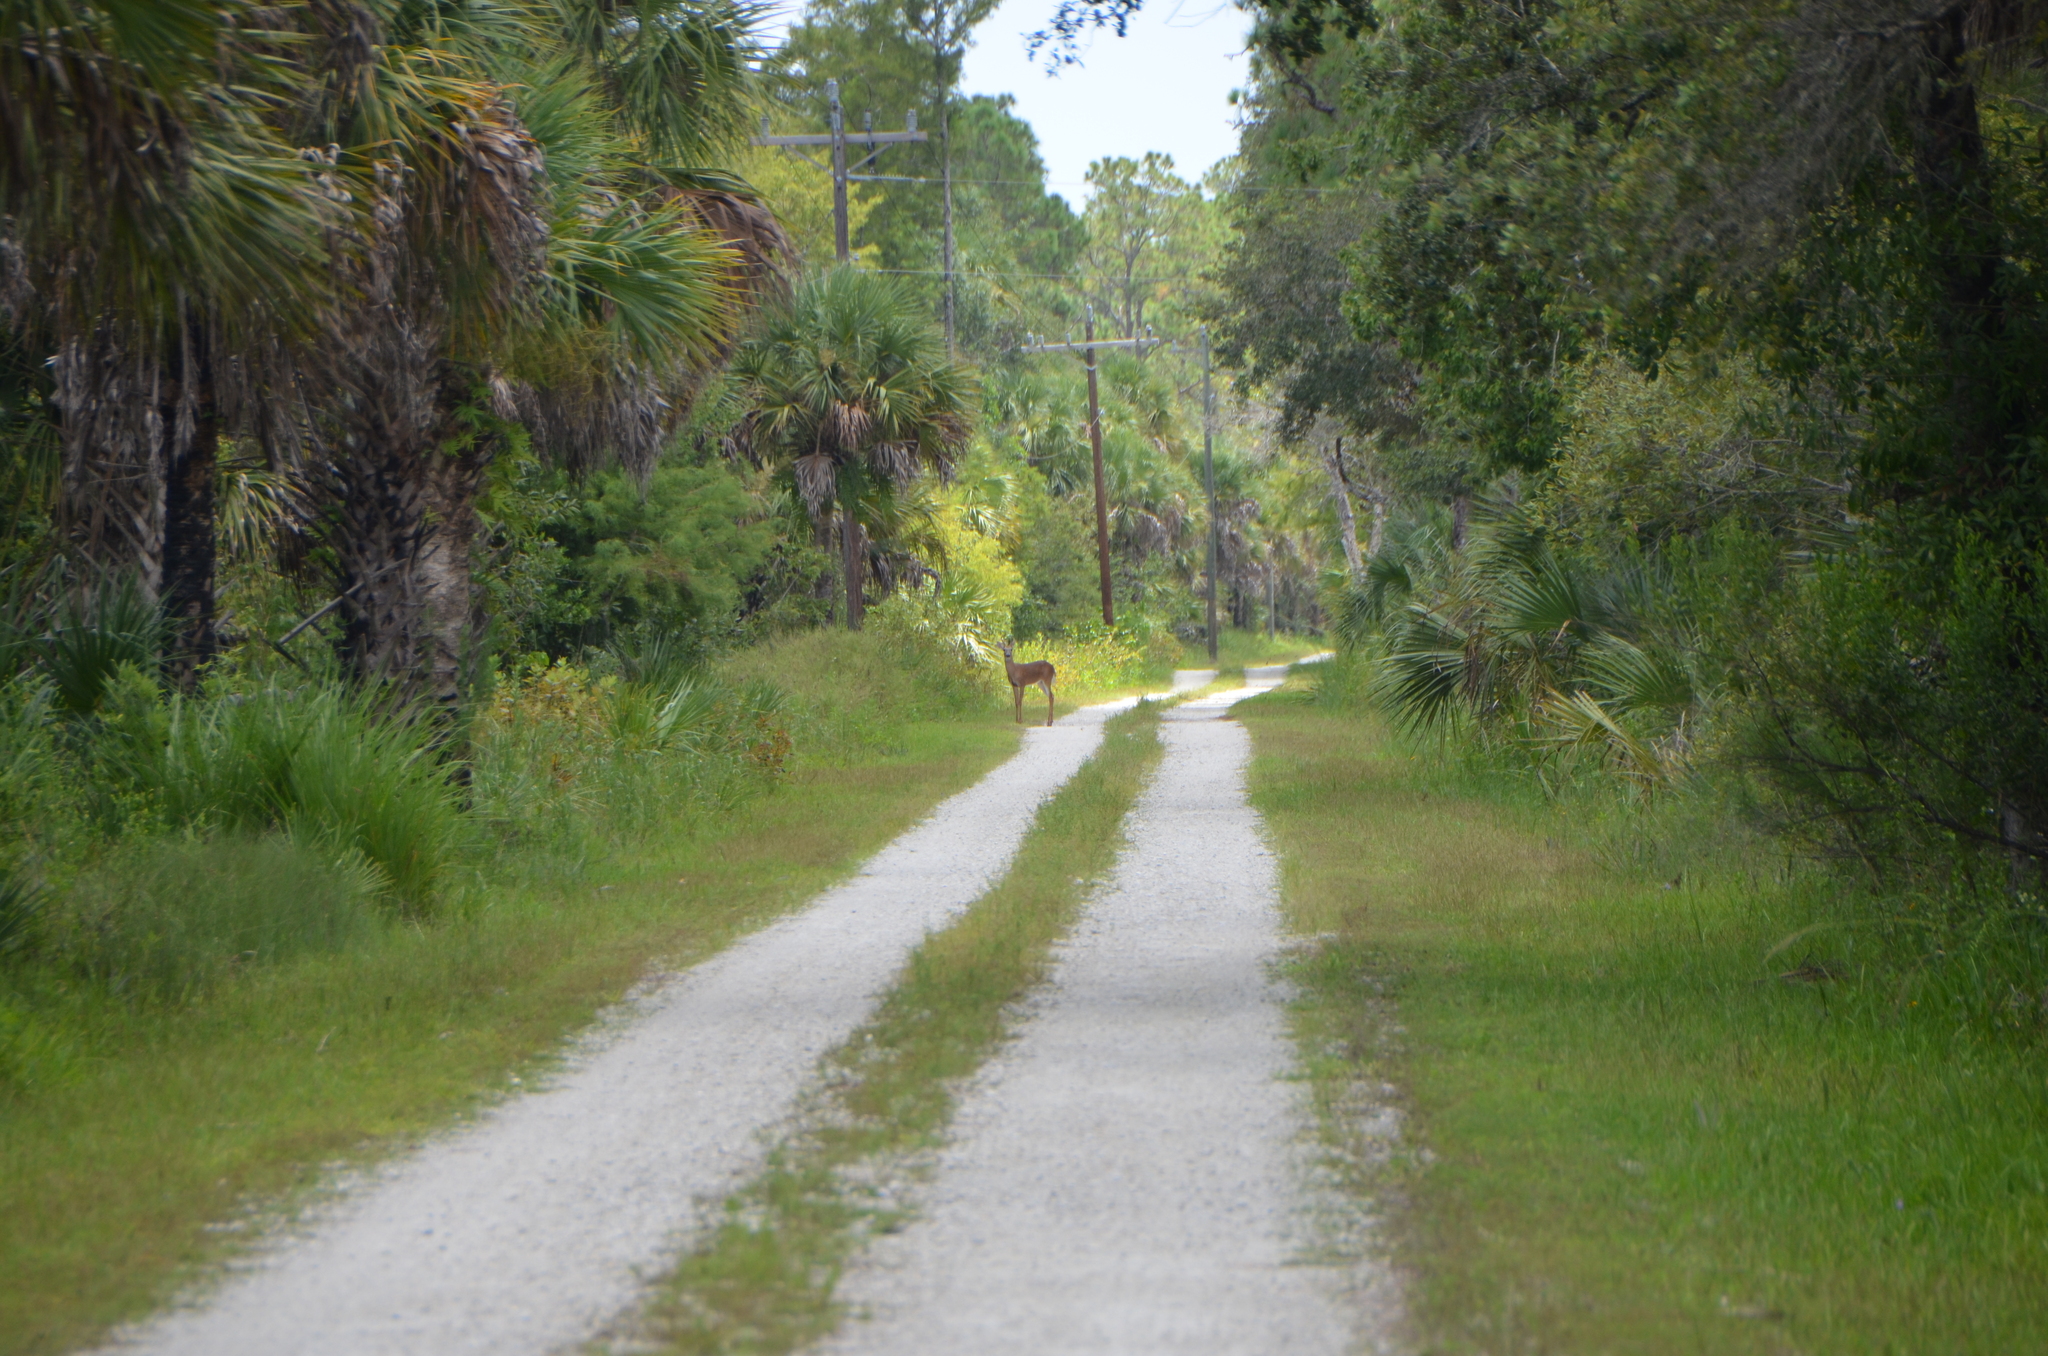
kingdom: Animalia
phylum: Chordata
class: Mammalia
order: Artiodactyla
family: Cervidae
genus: Odocoileus
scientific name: Odocoileus virginianus
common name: White-tailed deer
